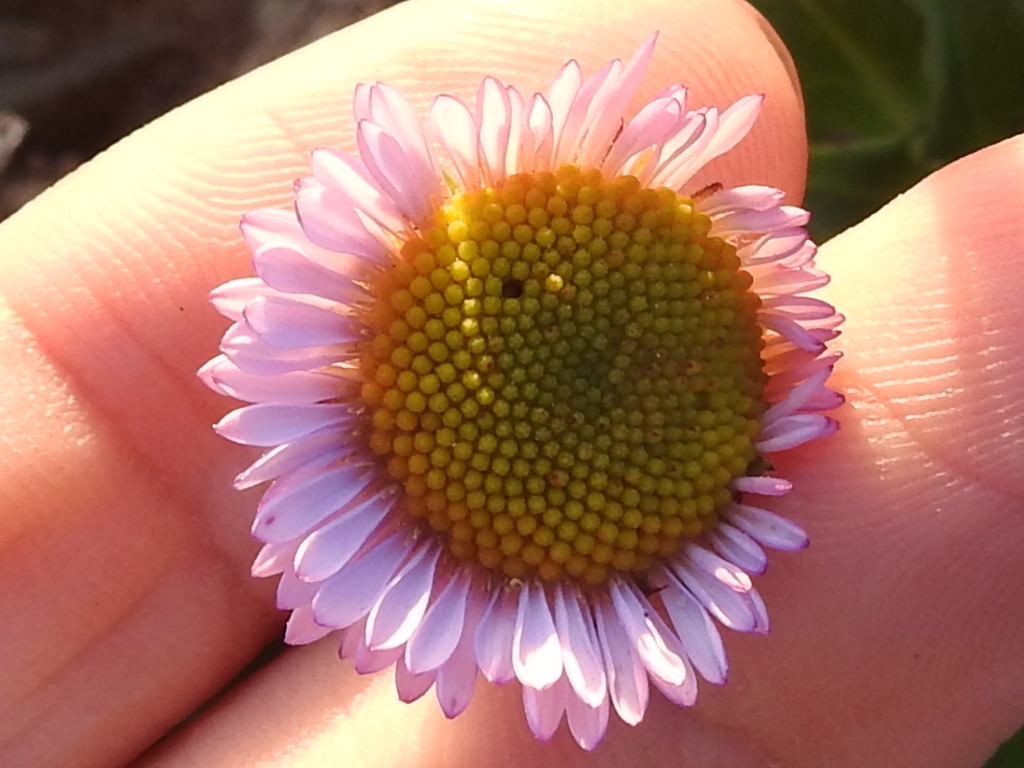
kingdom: Plantae
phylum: Tracheophyta
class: Magnoliopsida
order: Asterales
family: Asteraceae
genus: Erigeron
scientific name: Erigeron glaucus
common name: Seaside daisy
